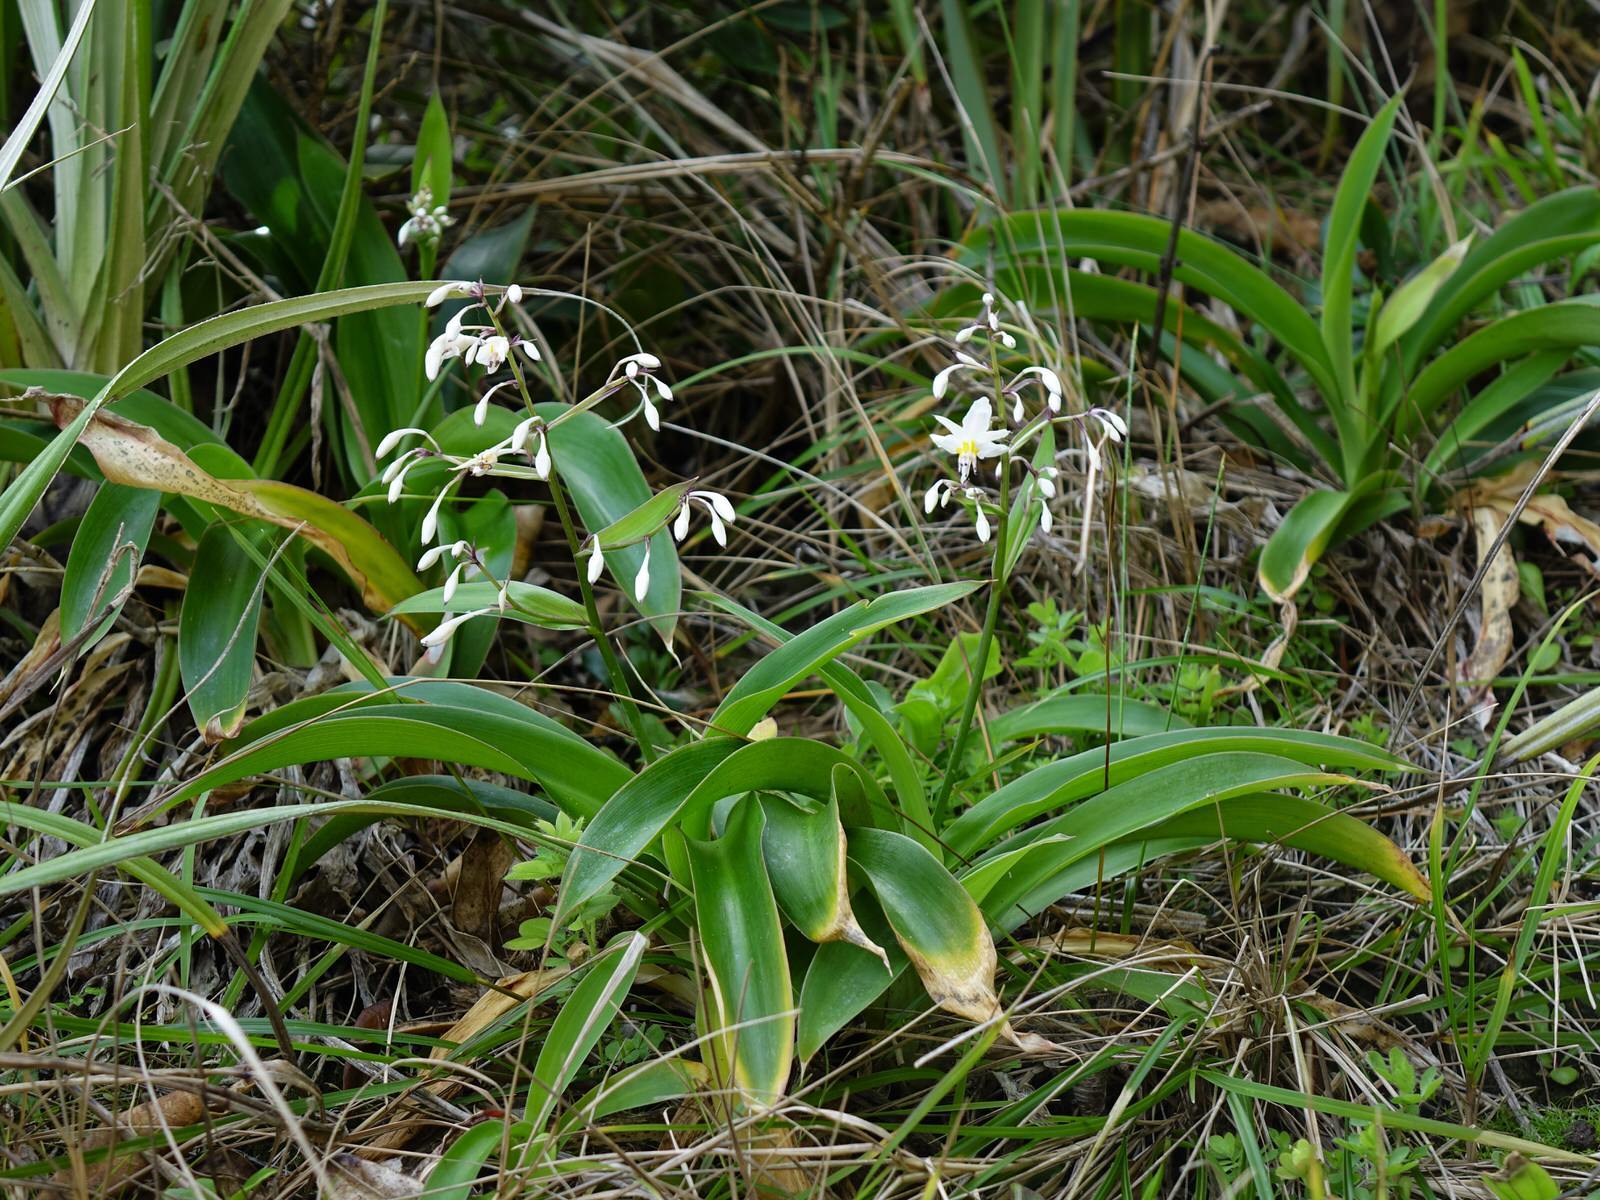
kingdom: Plantae
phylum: Tracheophyta
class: Liliopsida
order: Asparagales
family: Asparagaceae
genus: Arthropodium
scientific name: Arthropodium cirratum
